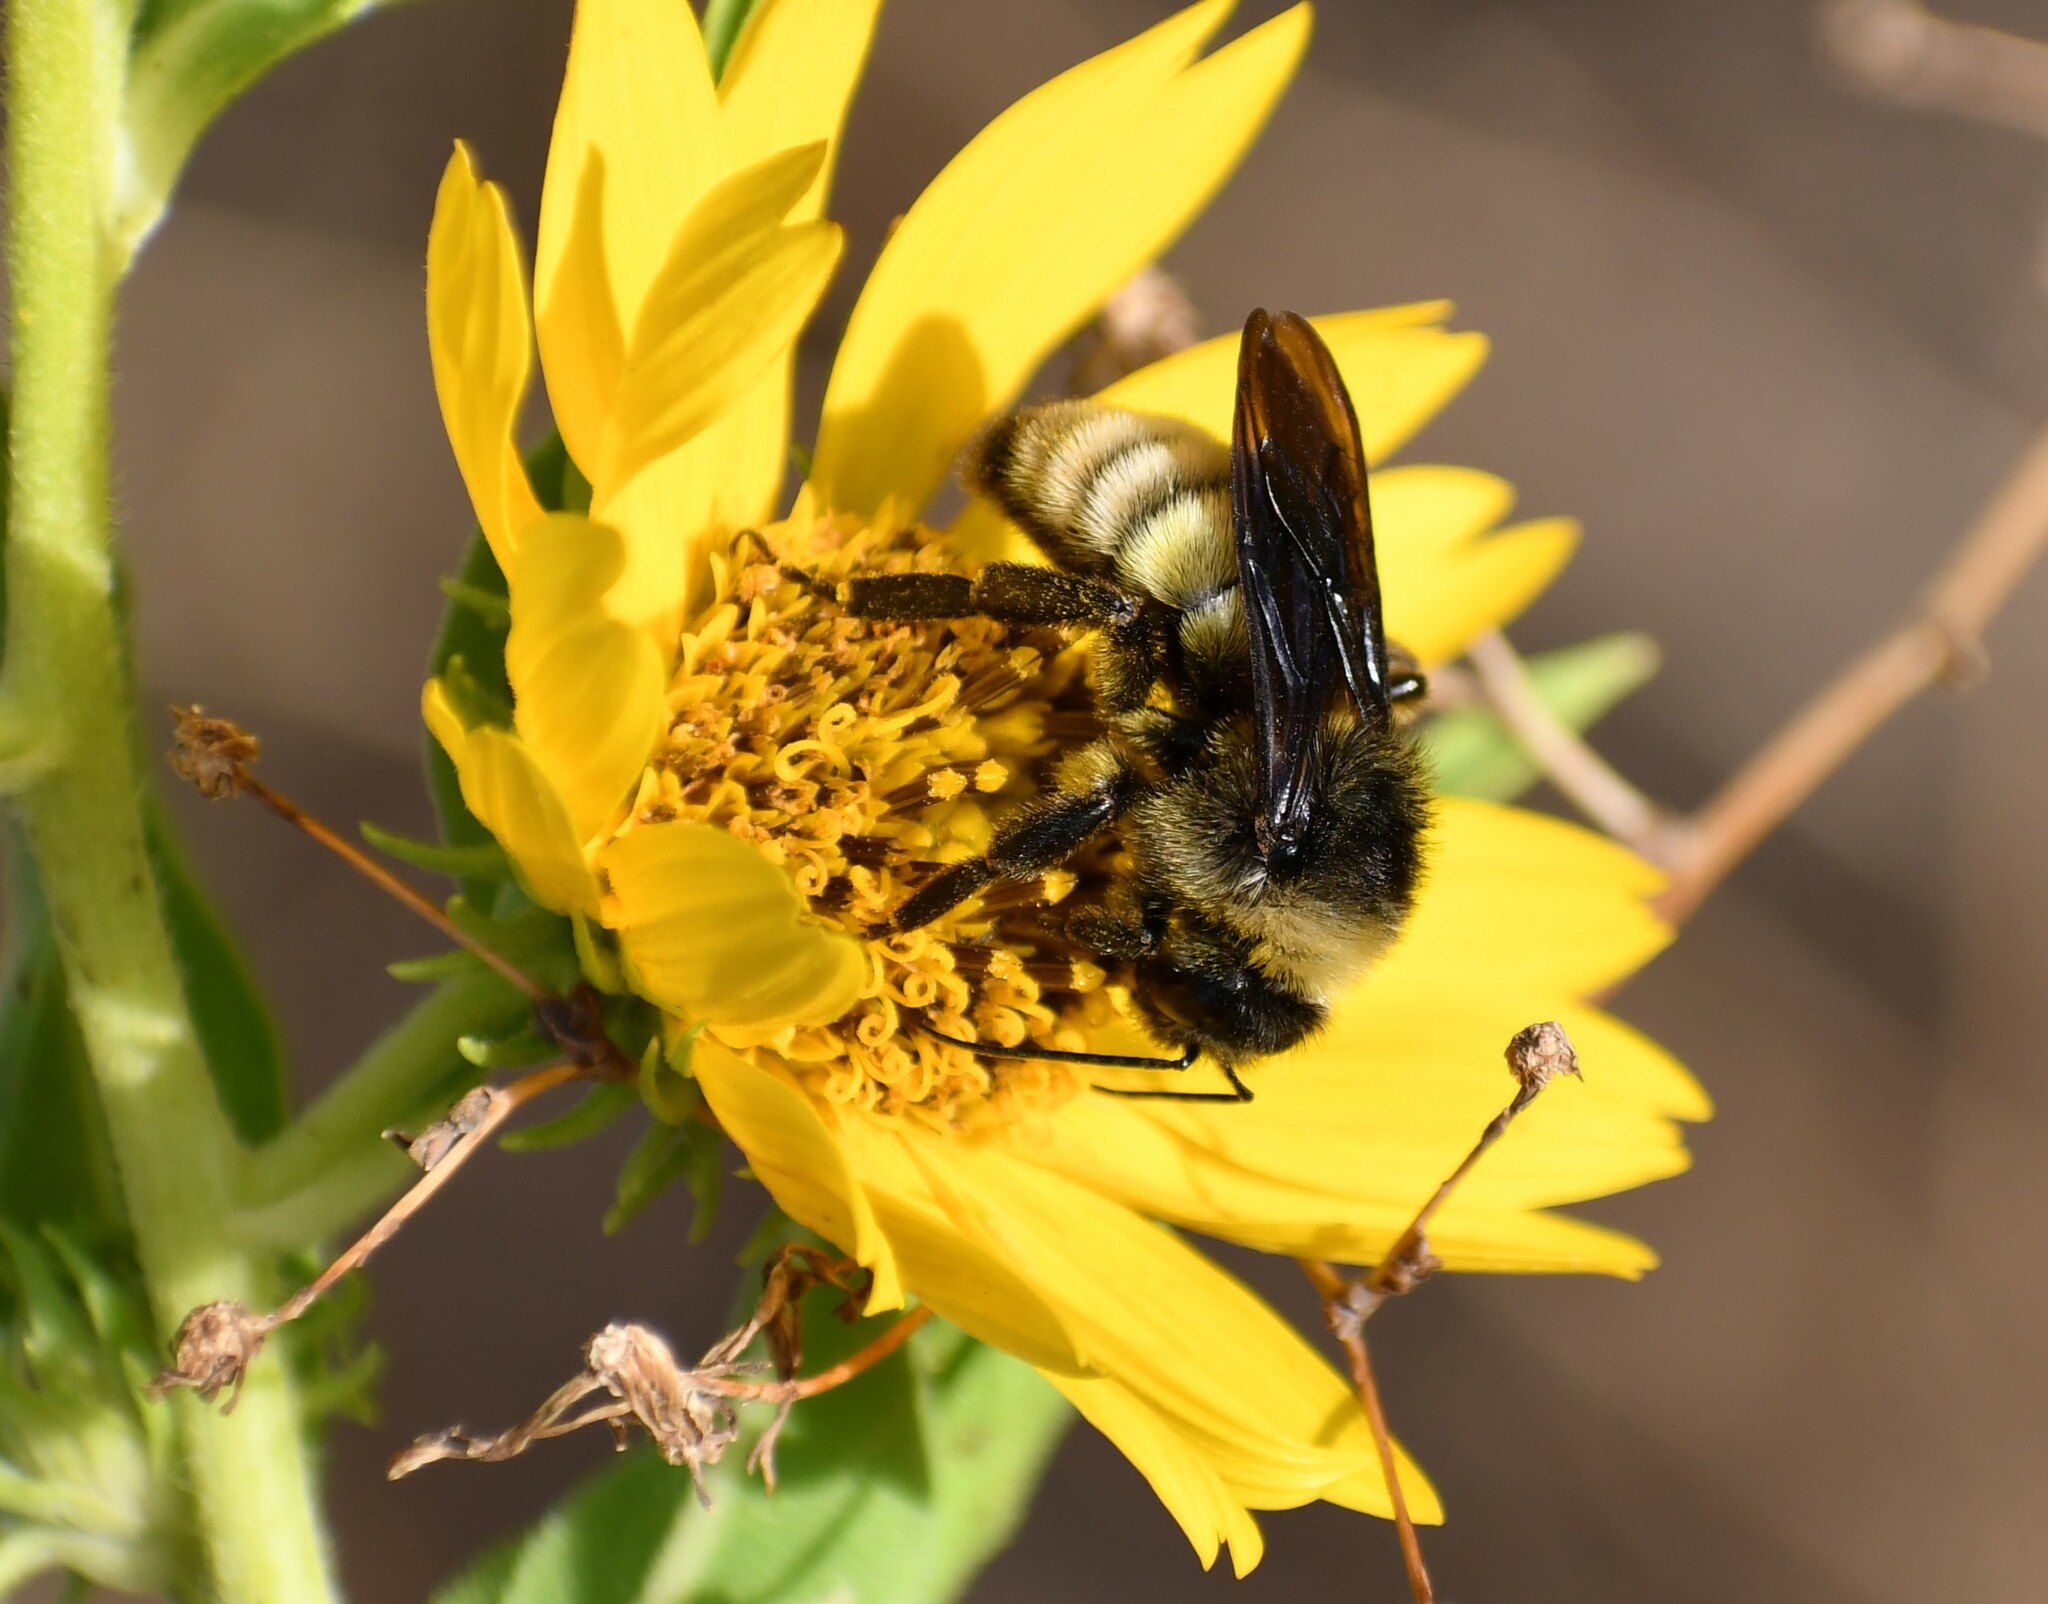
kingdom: Animalia
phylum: Arthropoda
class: Insecta
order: Hymenoptera
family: Apidae
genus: Bombus
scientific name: Bombus pensylvanicus
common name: Bumble bee
